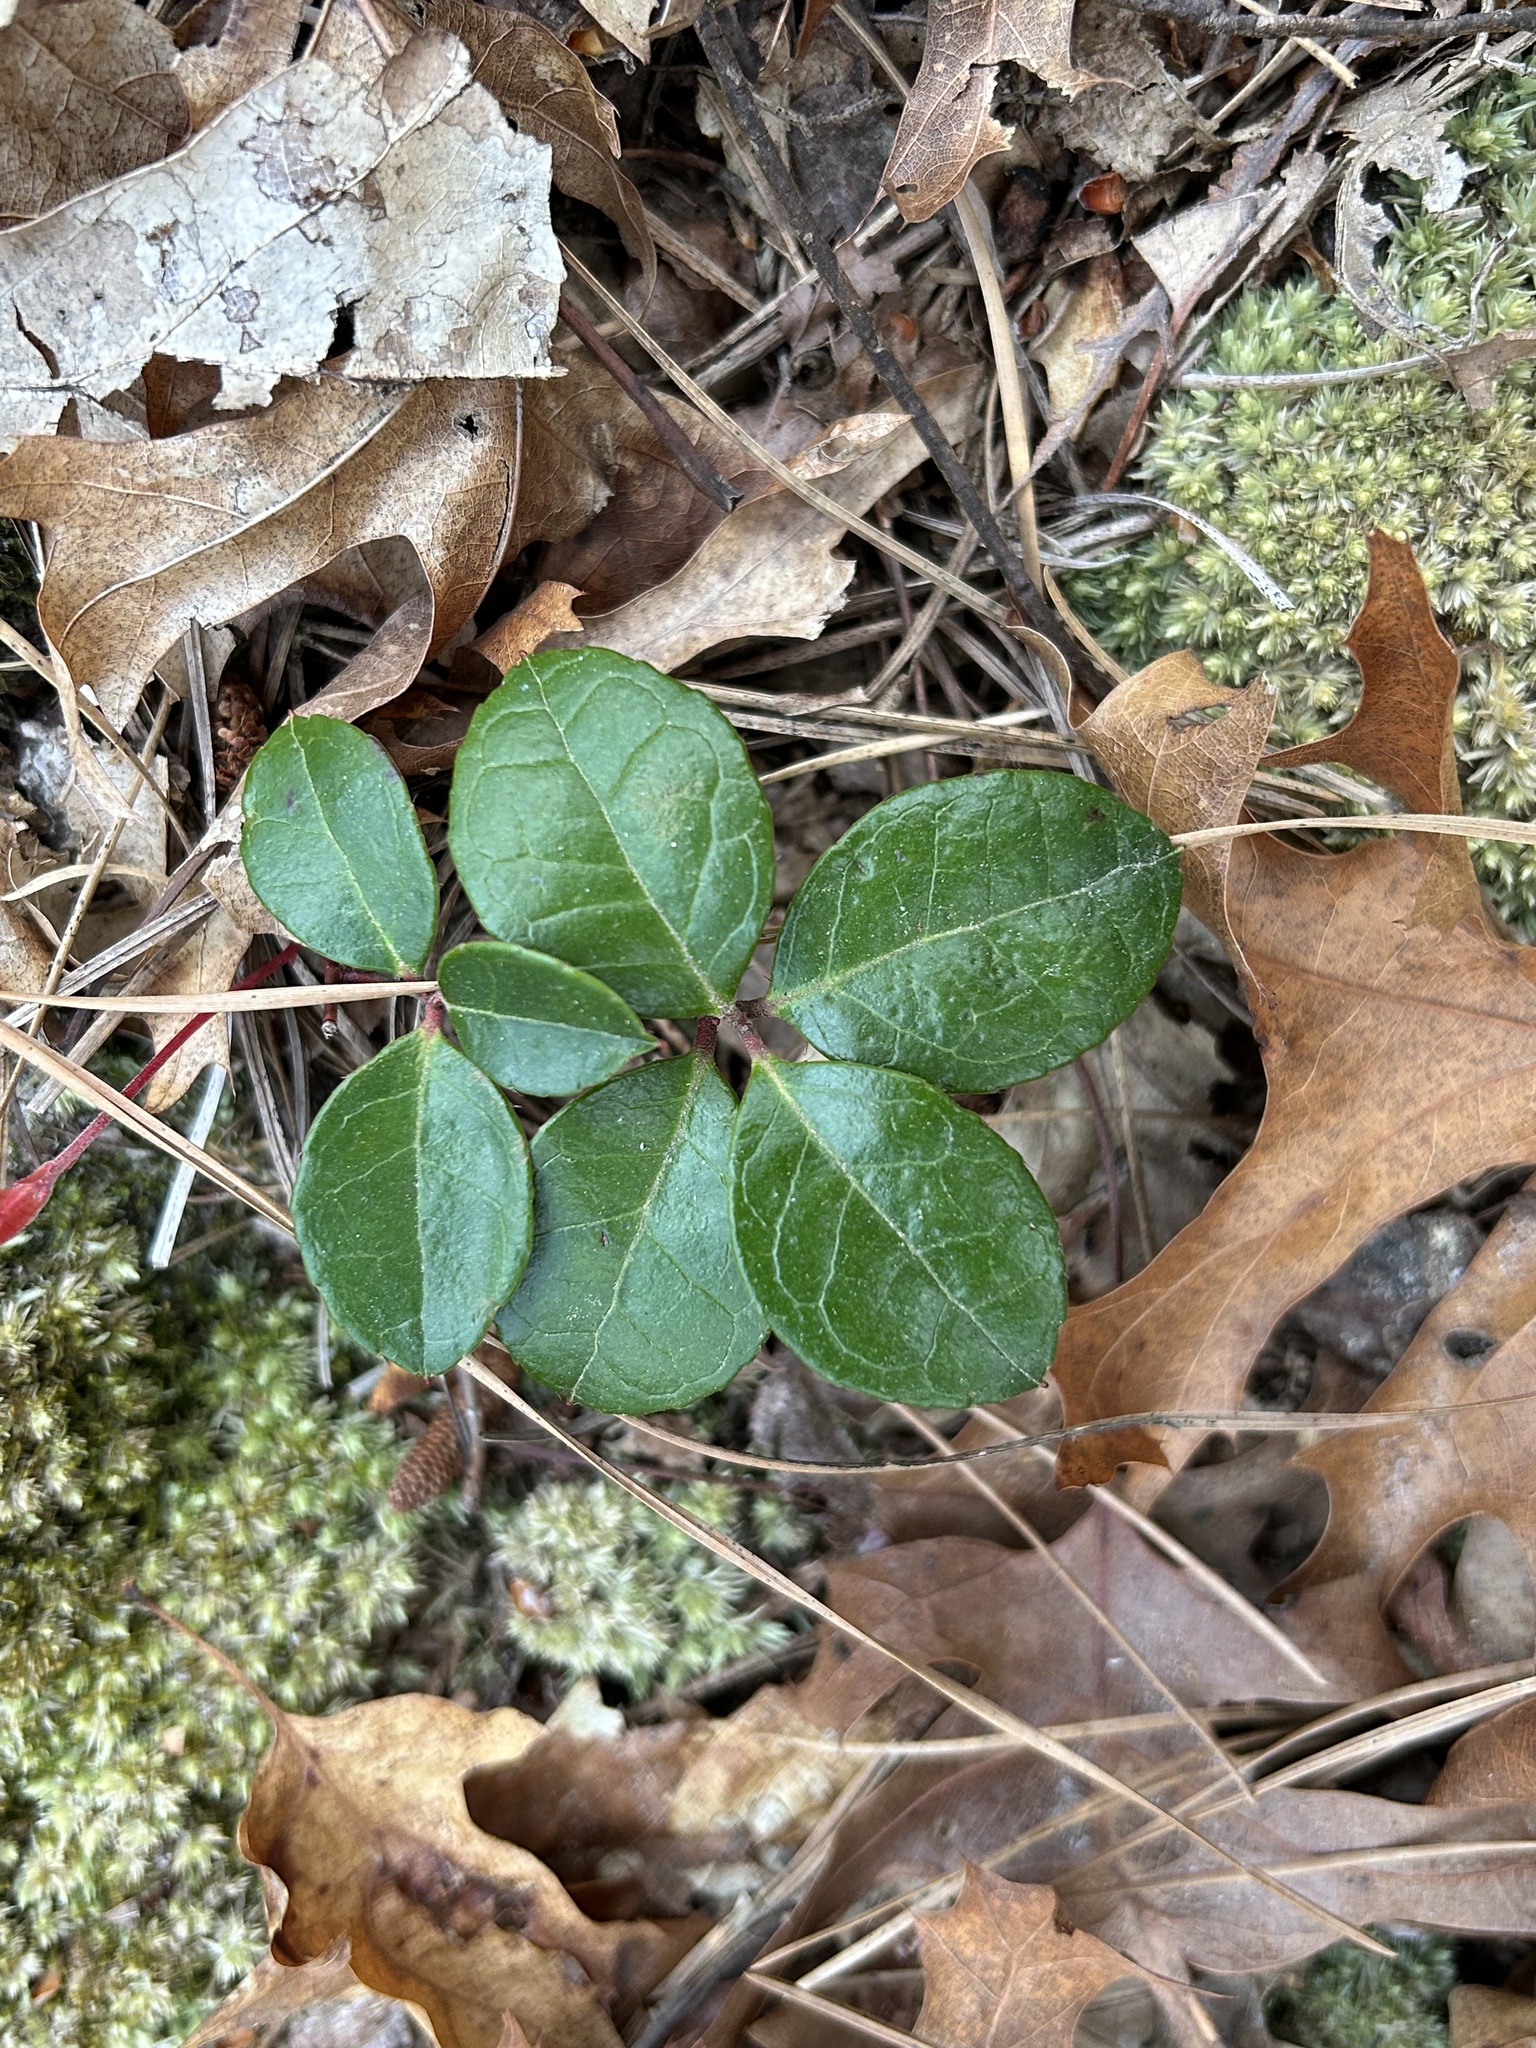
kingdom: Plantae
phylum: Tracheophyta
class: Magnoliopsida
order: Ericales
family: Ericaceae
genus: Gaultheria
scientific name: Gaultheria procumbens
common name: Checkerberry
